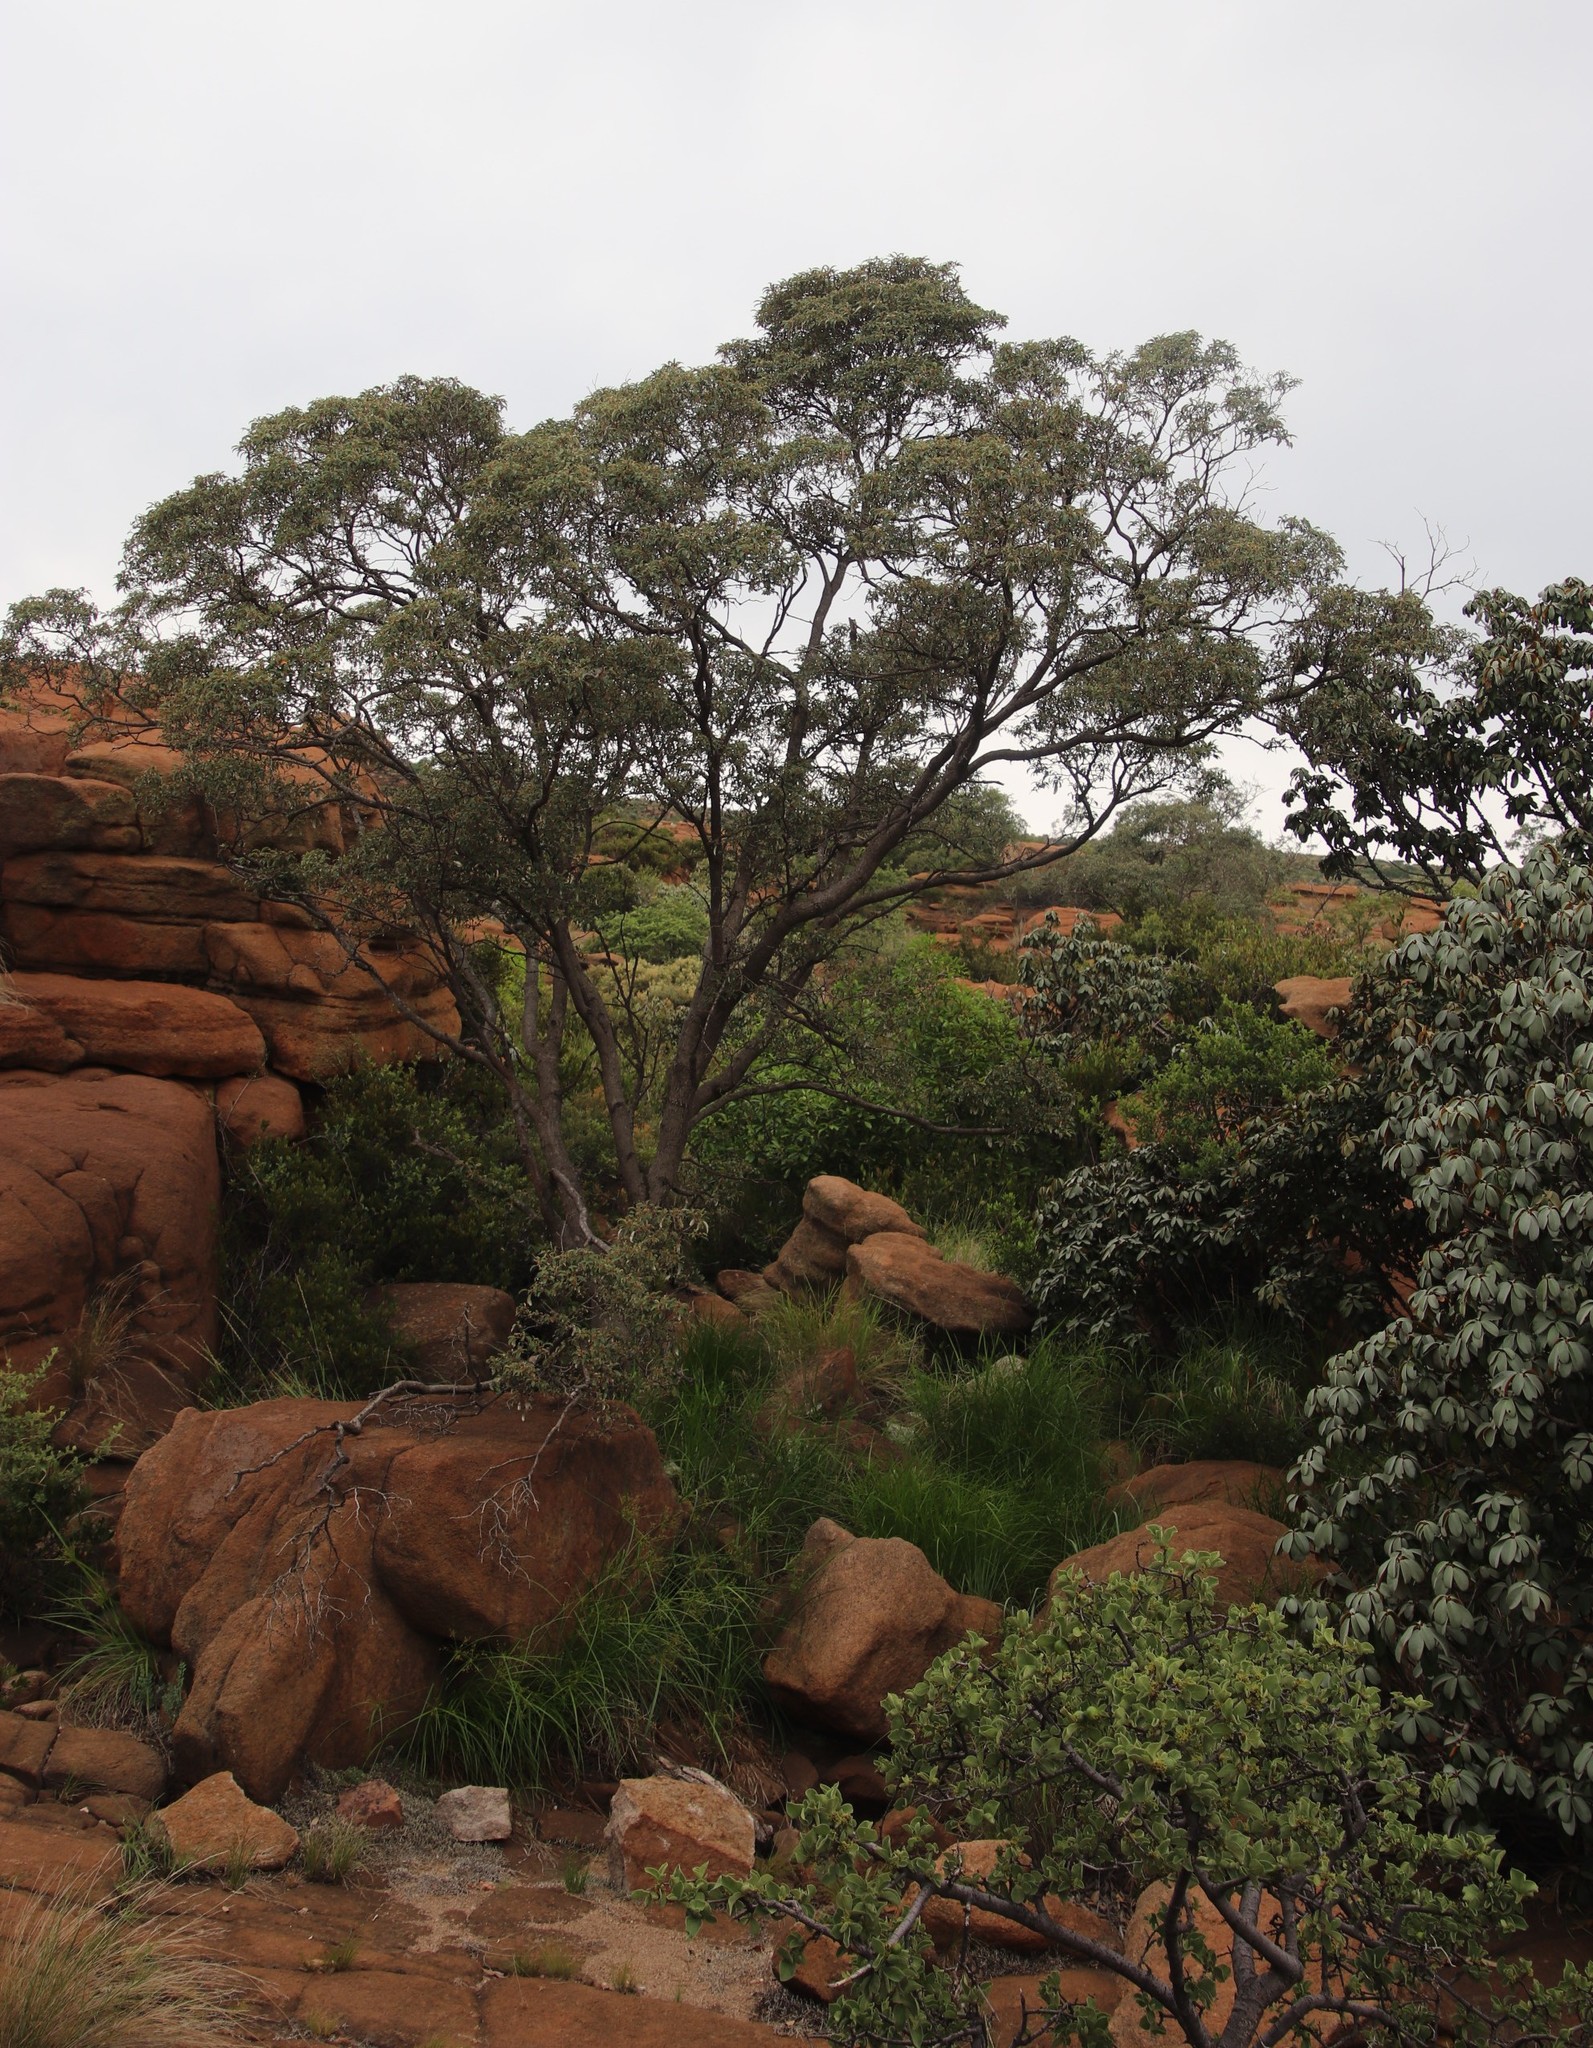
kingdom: Plantae
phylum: Tracheophyta
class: Magnoliopsida
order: Malpighiales
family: Euphorbiaceae
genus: Croton
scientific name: Croton gratissimus
